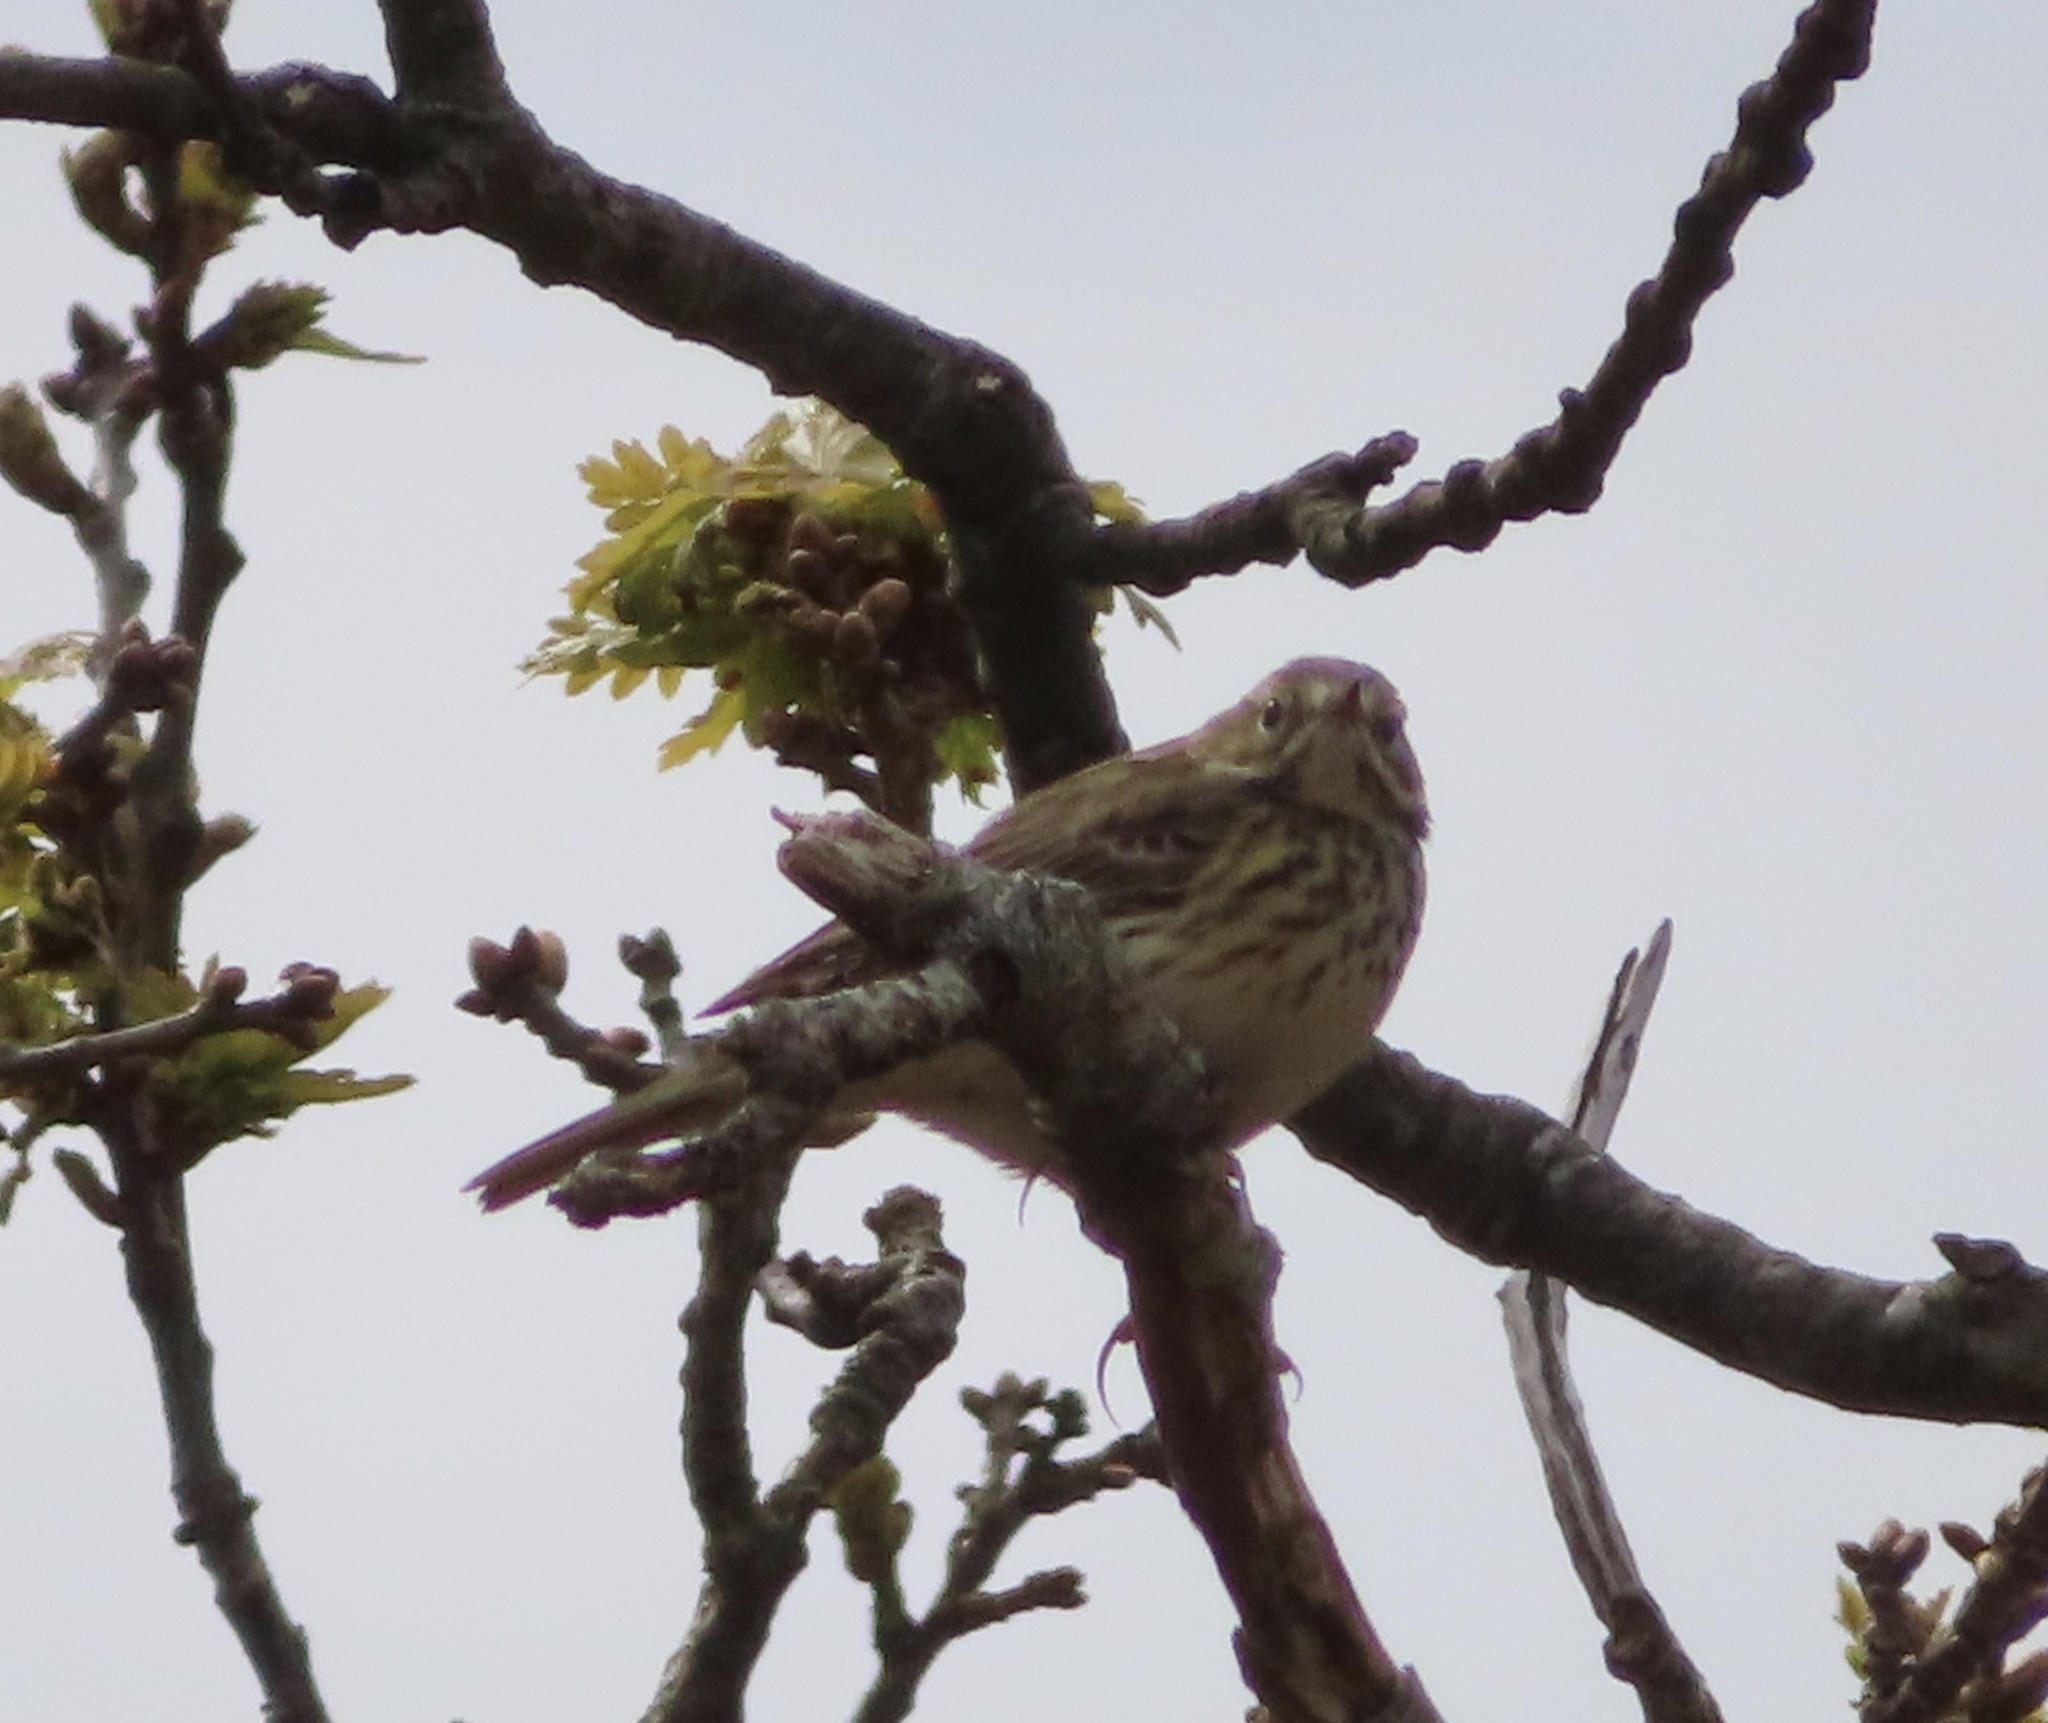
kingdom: Animalia
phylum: Chordata
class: Aves
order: Passeriformes
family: Motacillidae
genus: Anthus
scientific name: Anthus pratensis
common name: Meadow pipit
